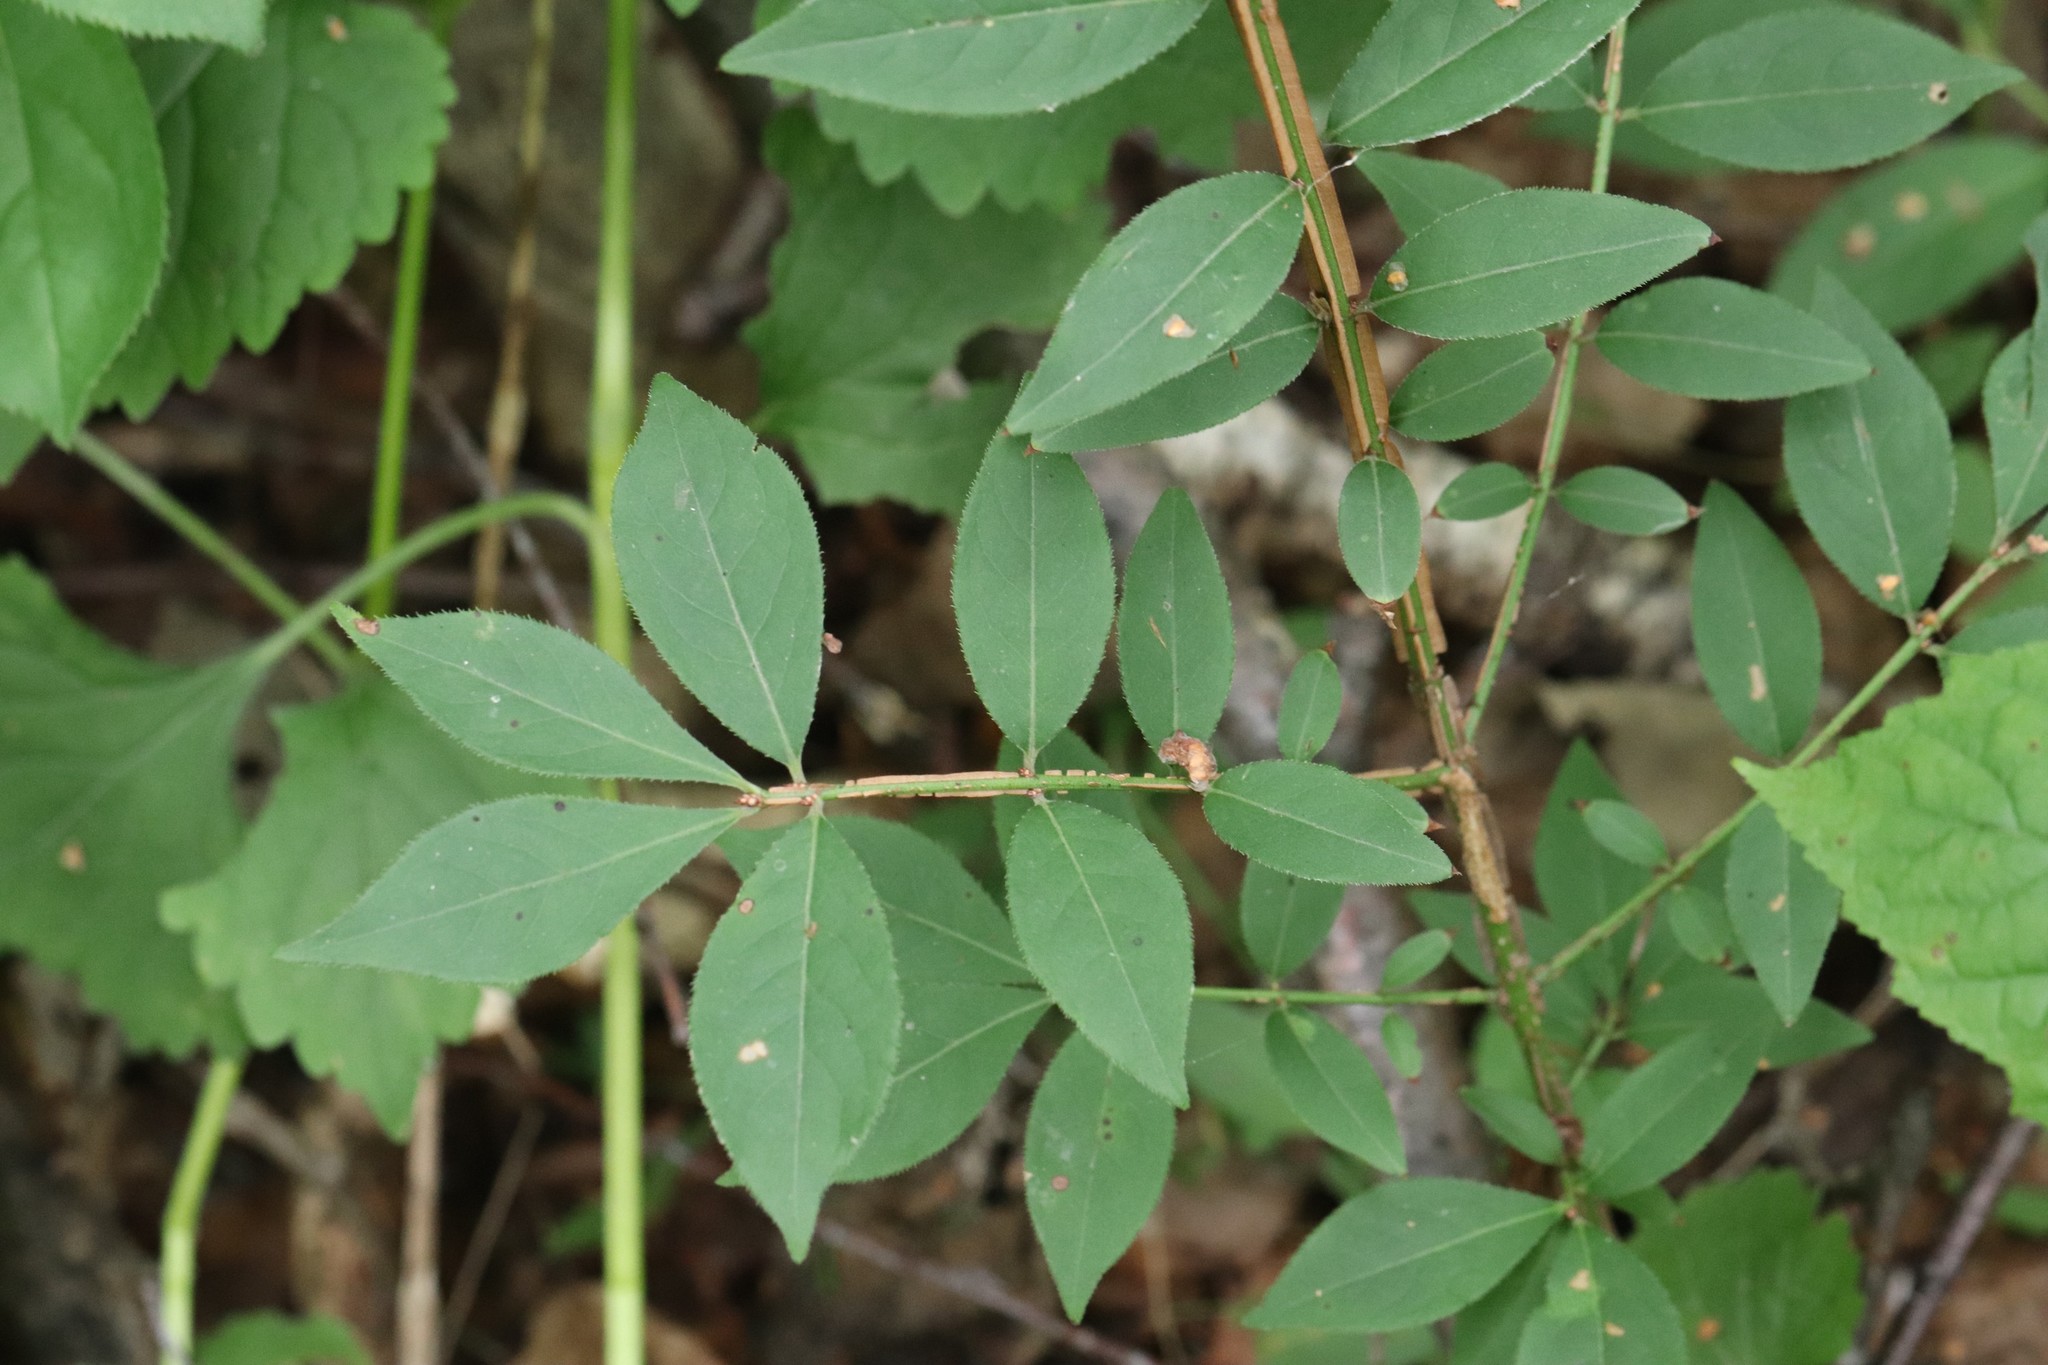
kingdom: Plantae
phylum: Tracheophyta
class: Magnoliopsida
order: Celastrales
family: Celastraceae
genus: Euonymus
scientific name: Euonymus alatus
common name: Winged euonymus
